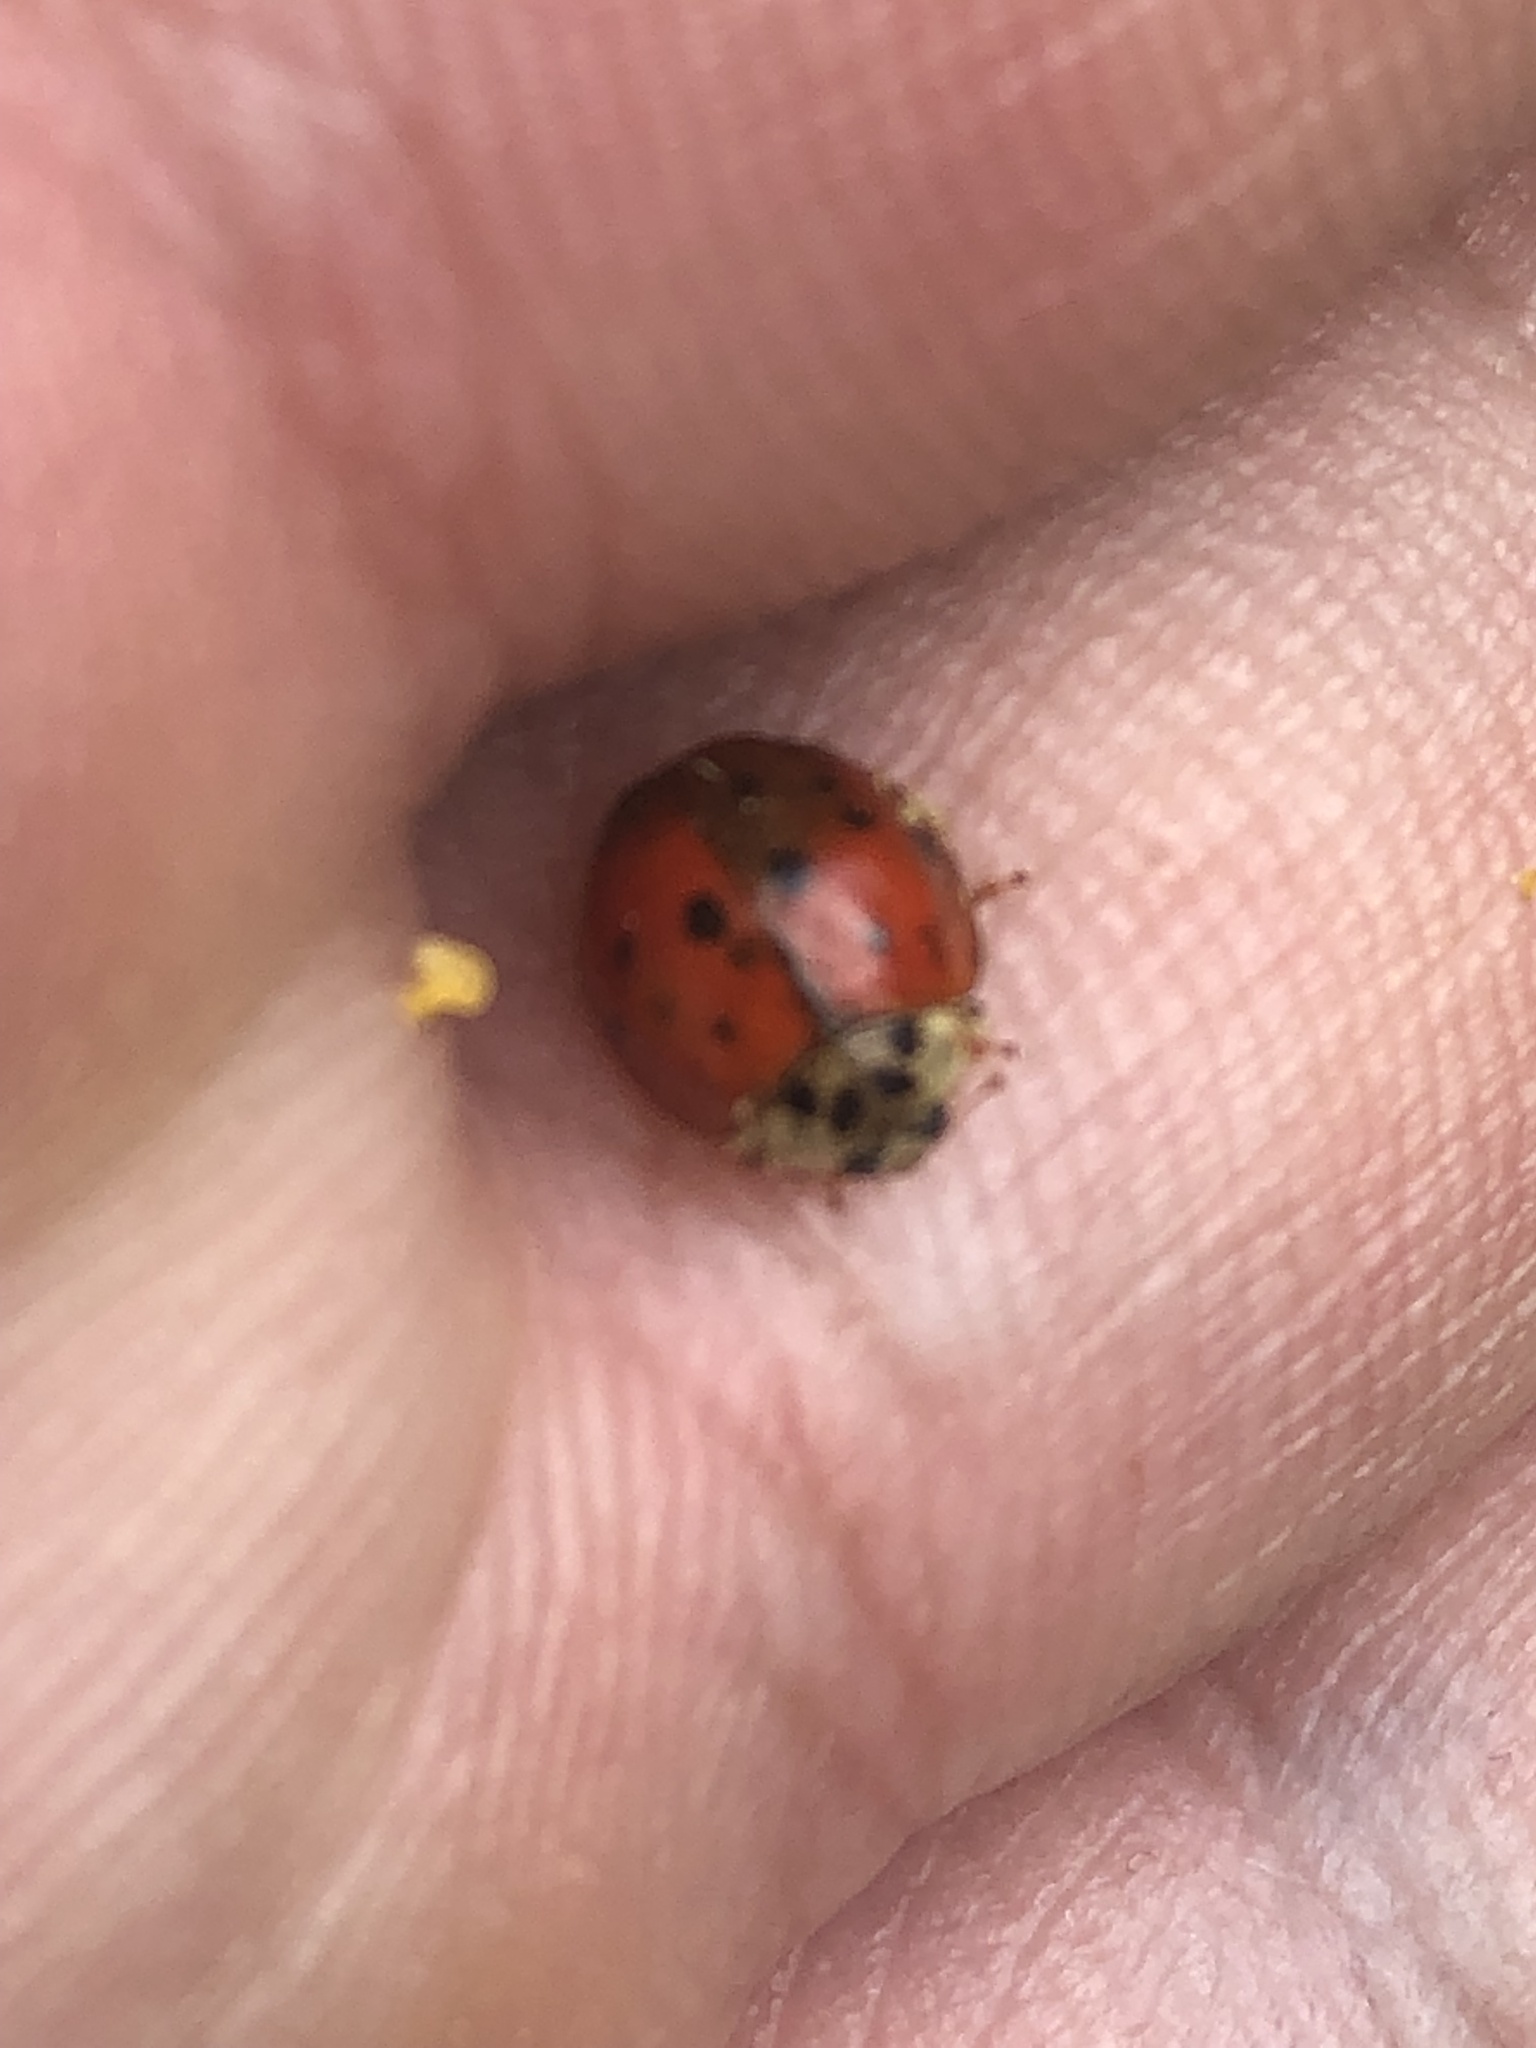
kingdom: Animalia
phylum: Arthropoda
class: Insecta
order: Coleoptera
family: Coccinellidae
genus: Harmonia
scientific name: Harmonia axyridis
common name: Harlequin ladybird
